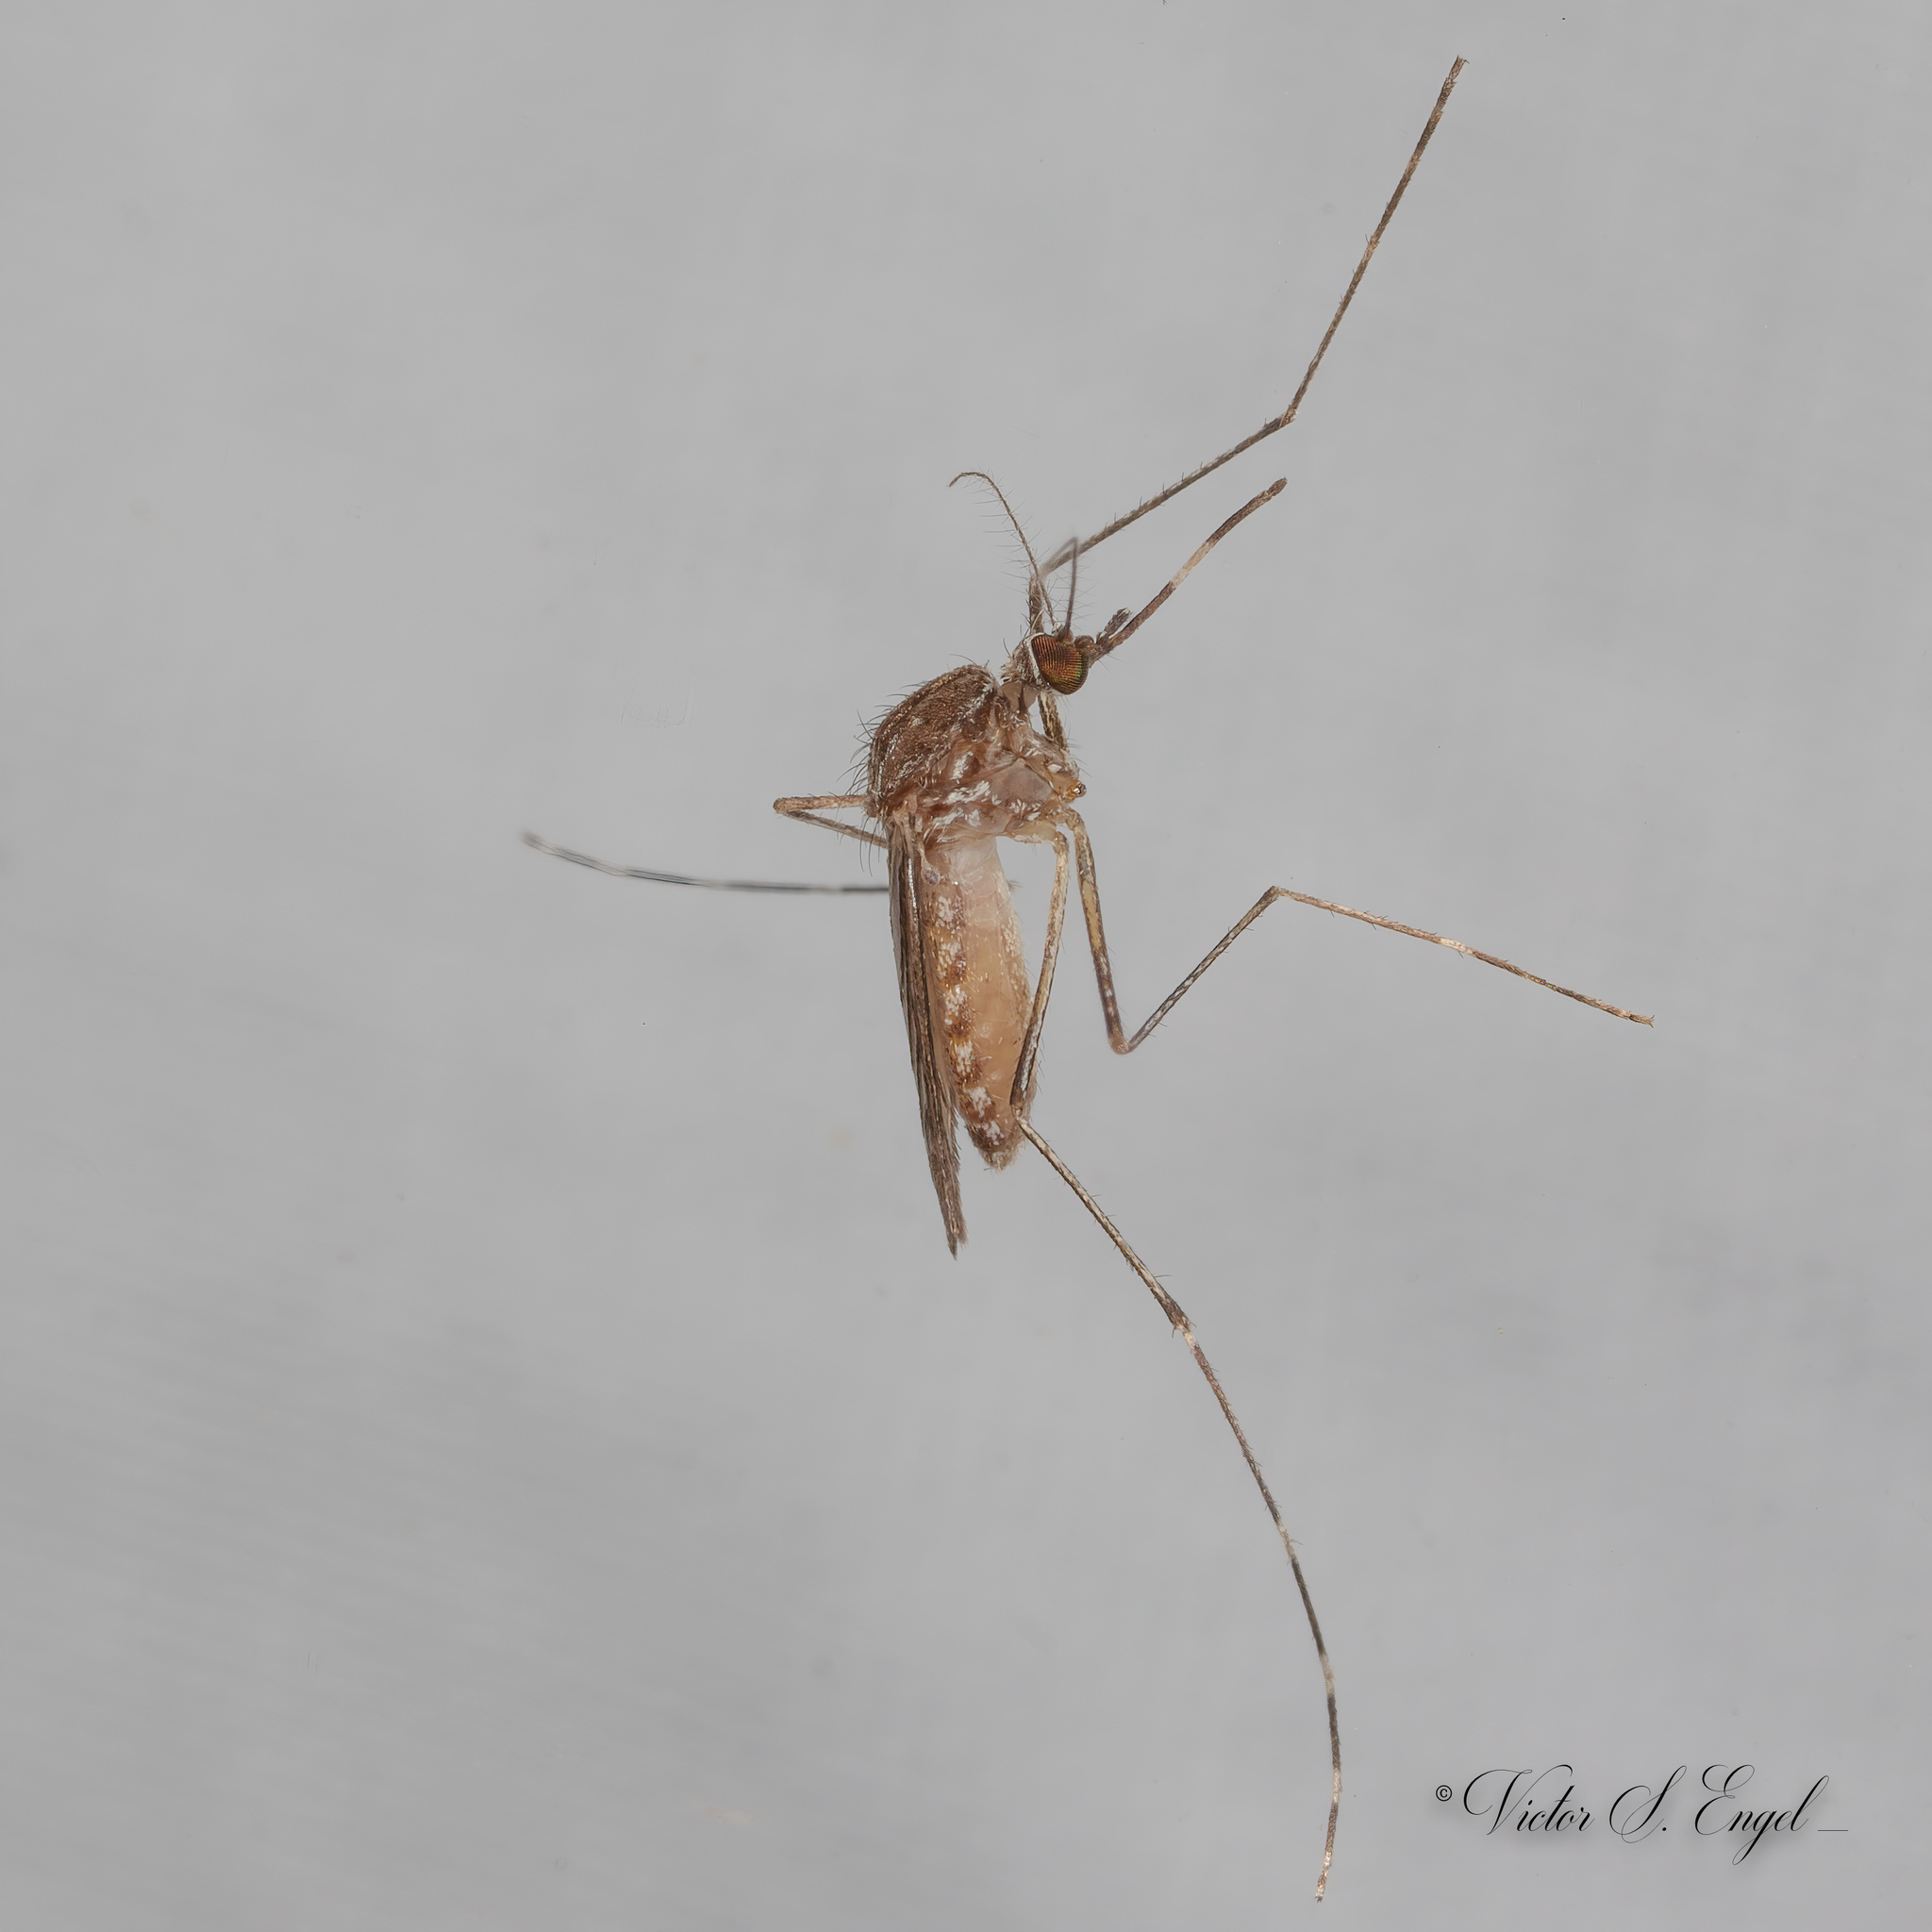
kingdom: Animalia
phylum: Arthropoda
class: Insecta
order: Diptera
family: Culicidae
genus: Culex
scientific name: Culex tarsalis
